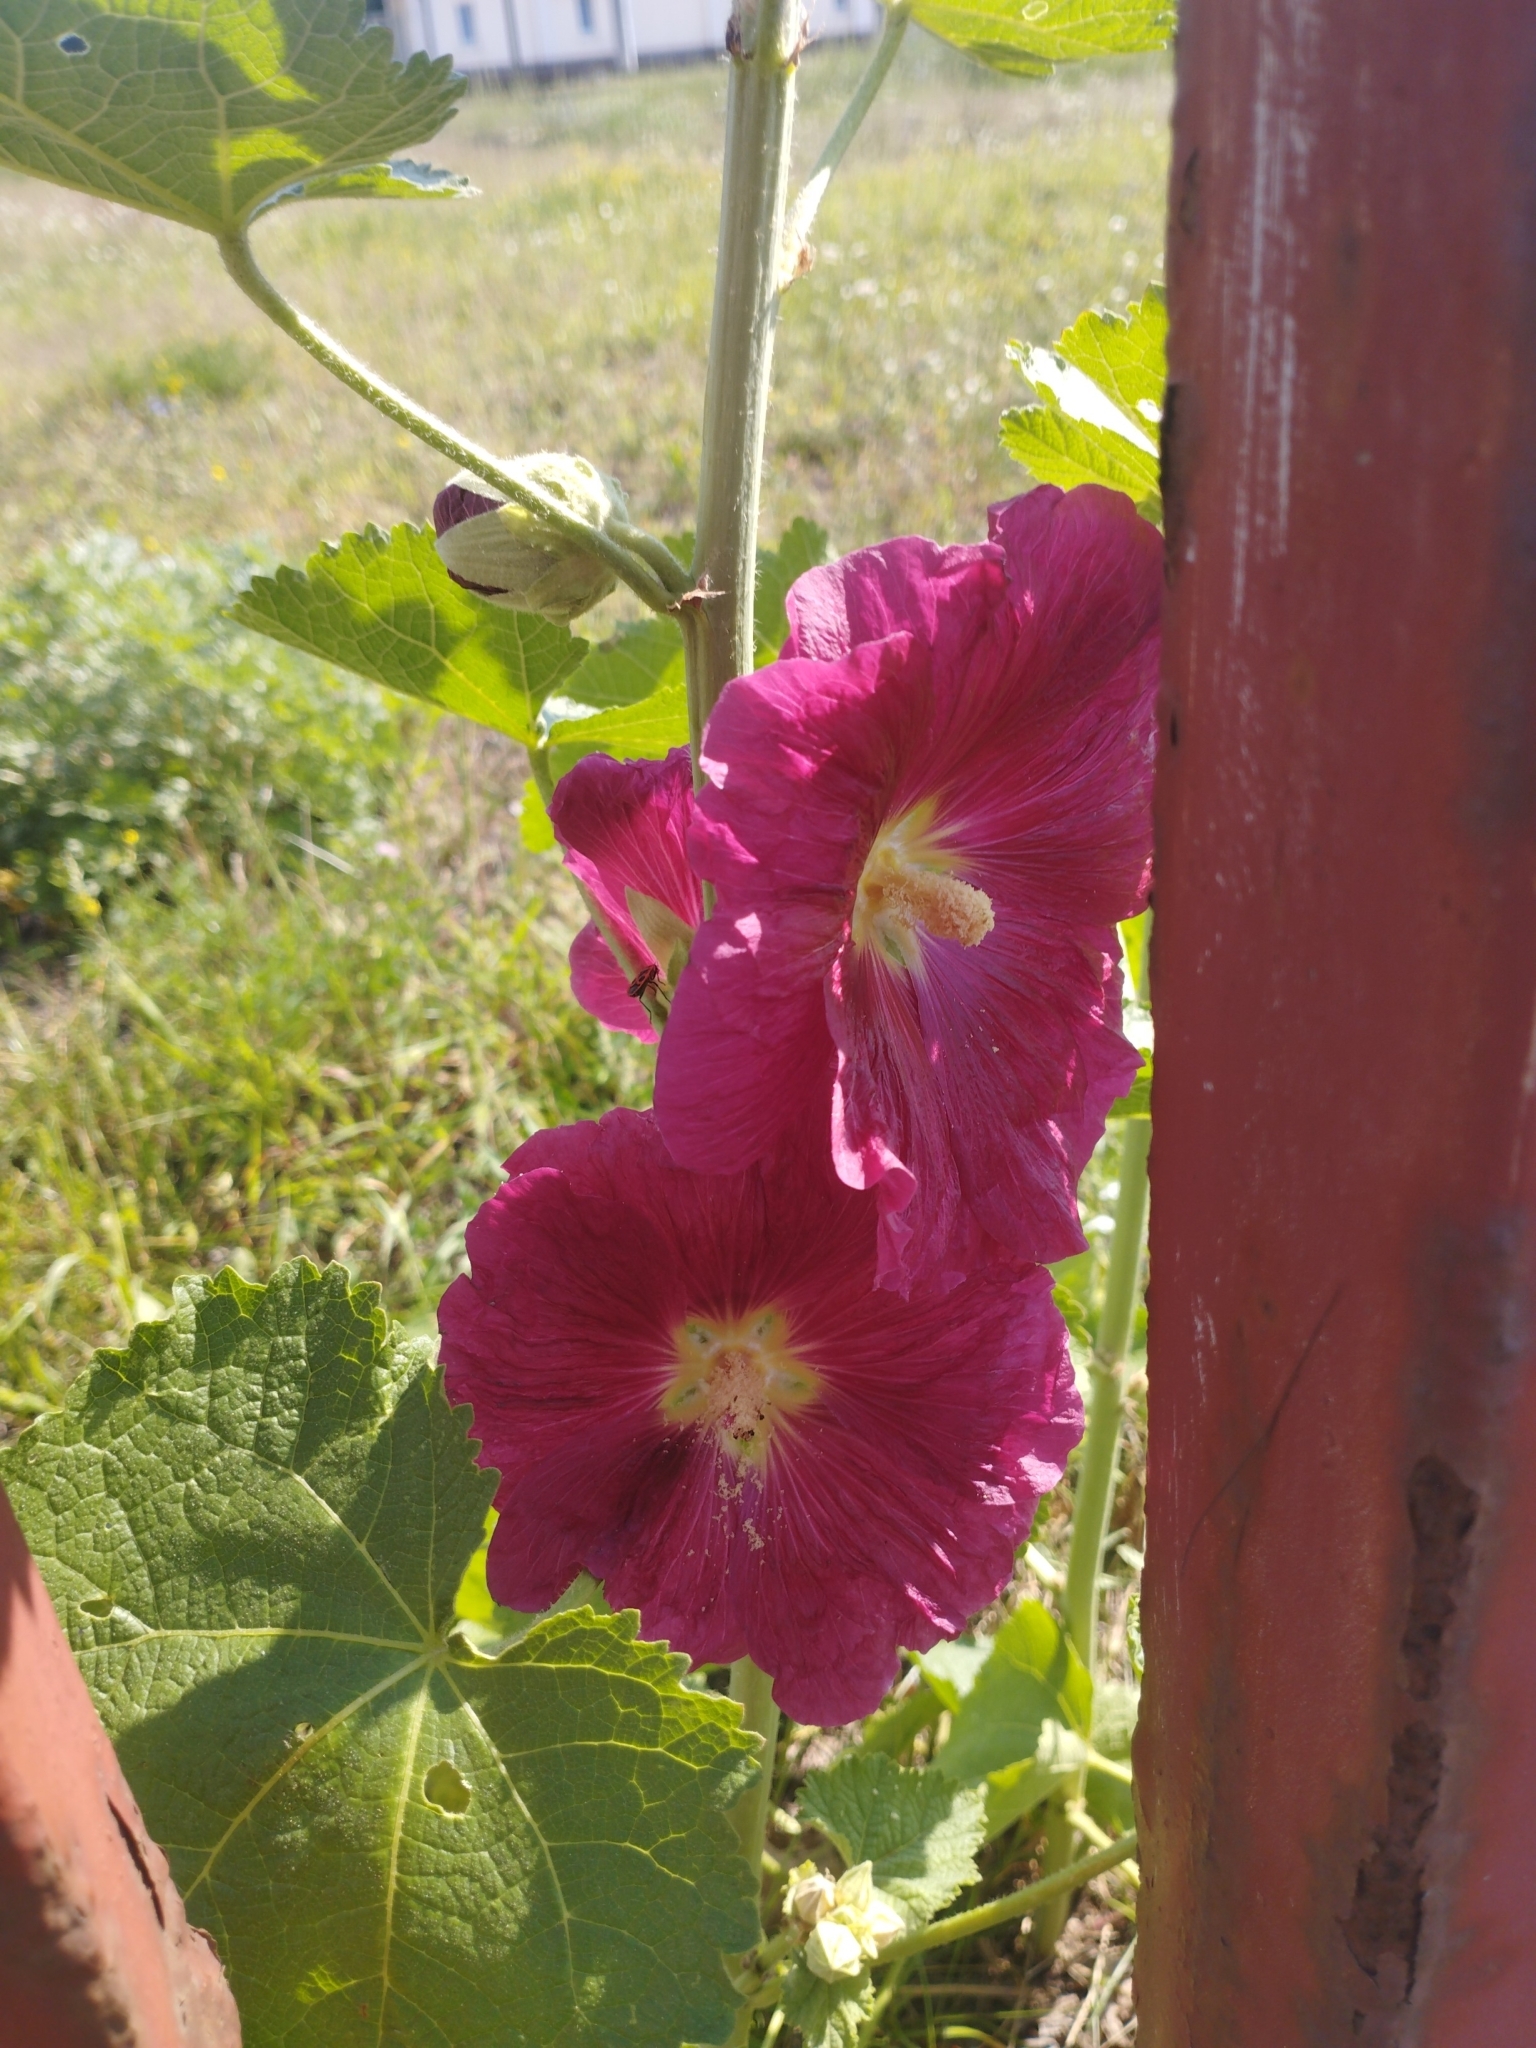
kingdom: Plantae
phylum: Tracheophyta
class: Magnoliopsida
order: Malvales
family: Malvaceae
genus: Alcea
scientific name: Alcea rosea
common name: Hollyhock
